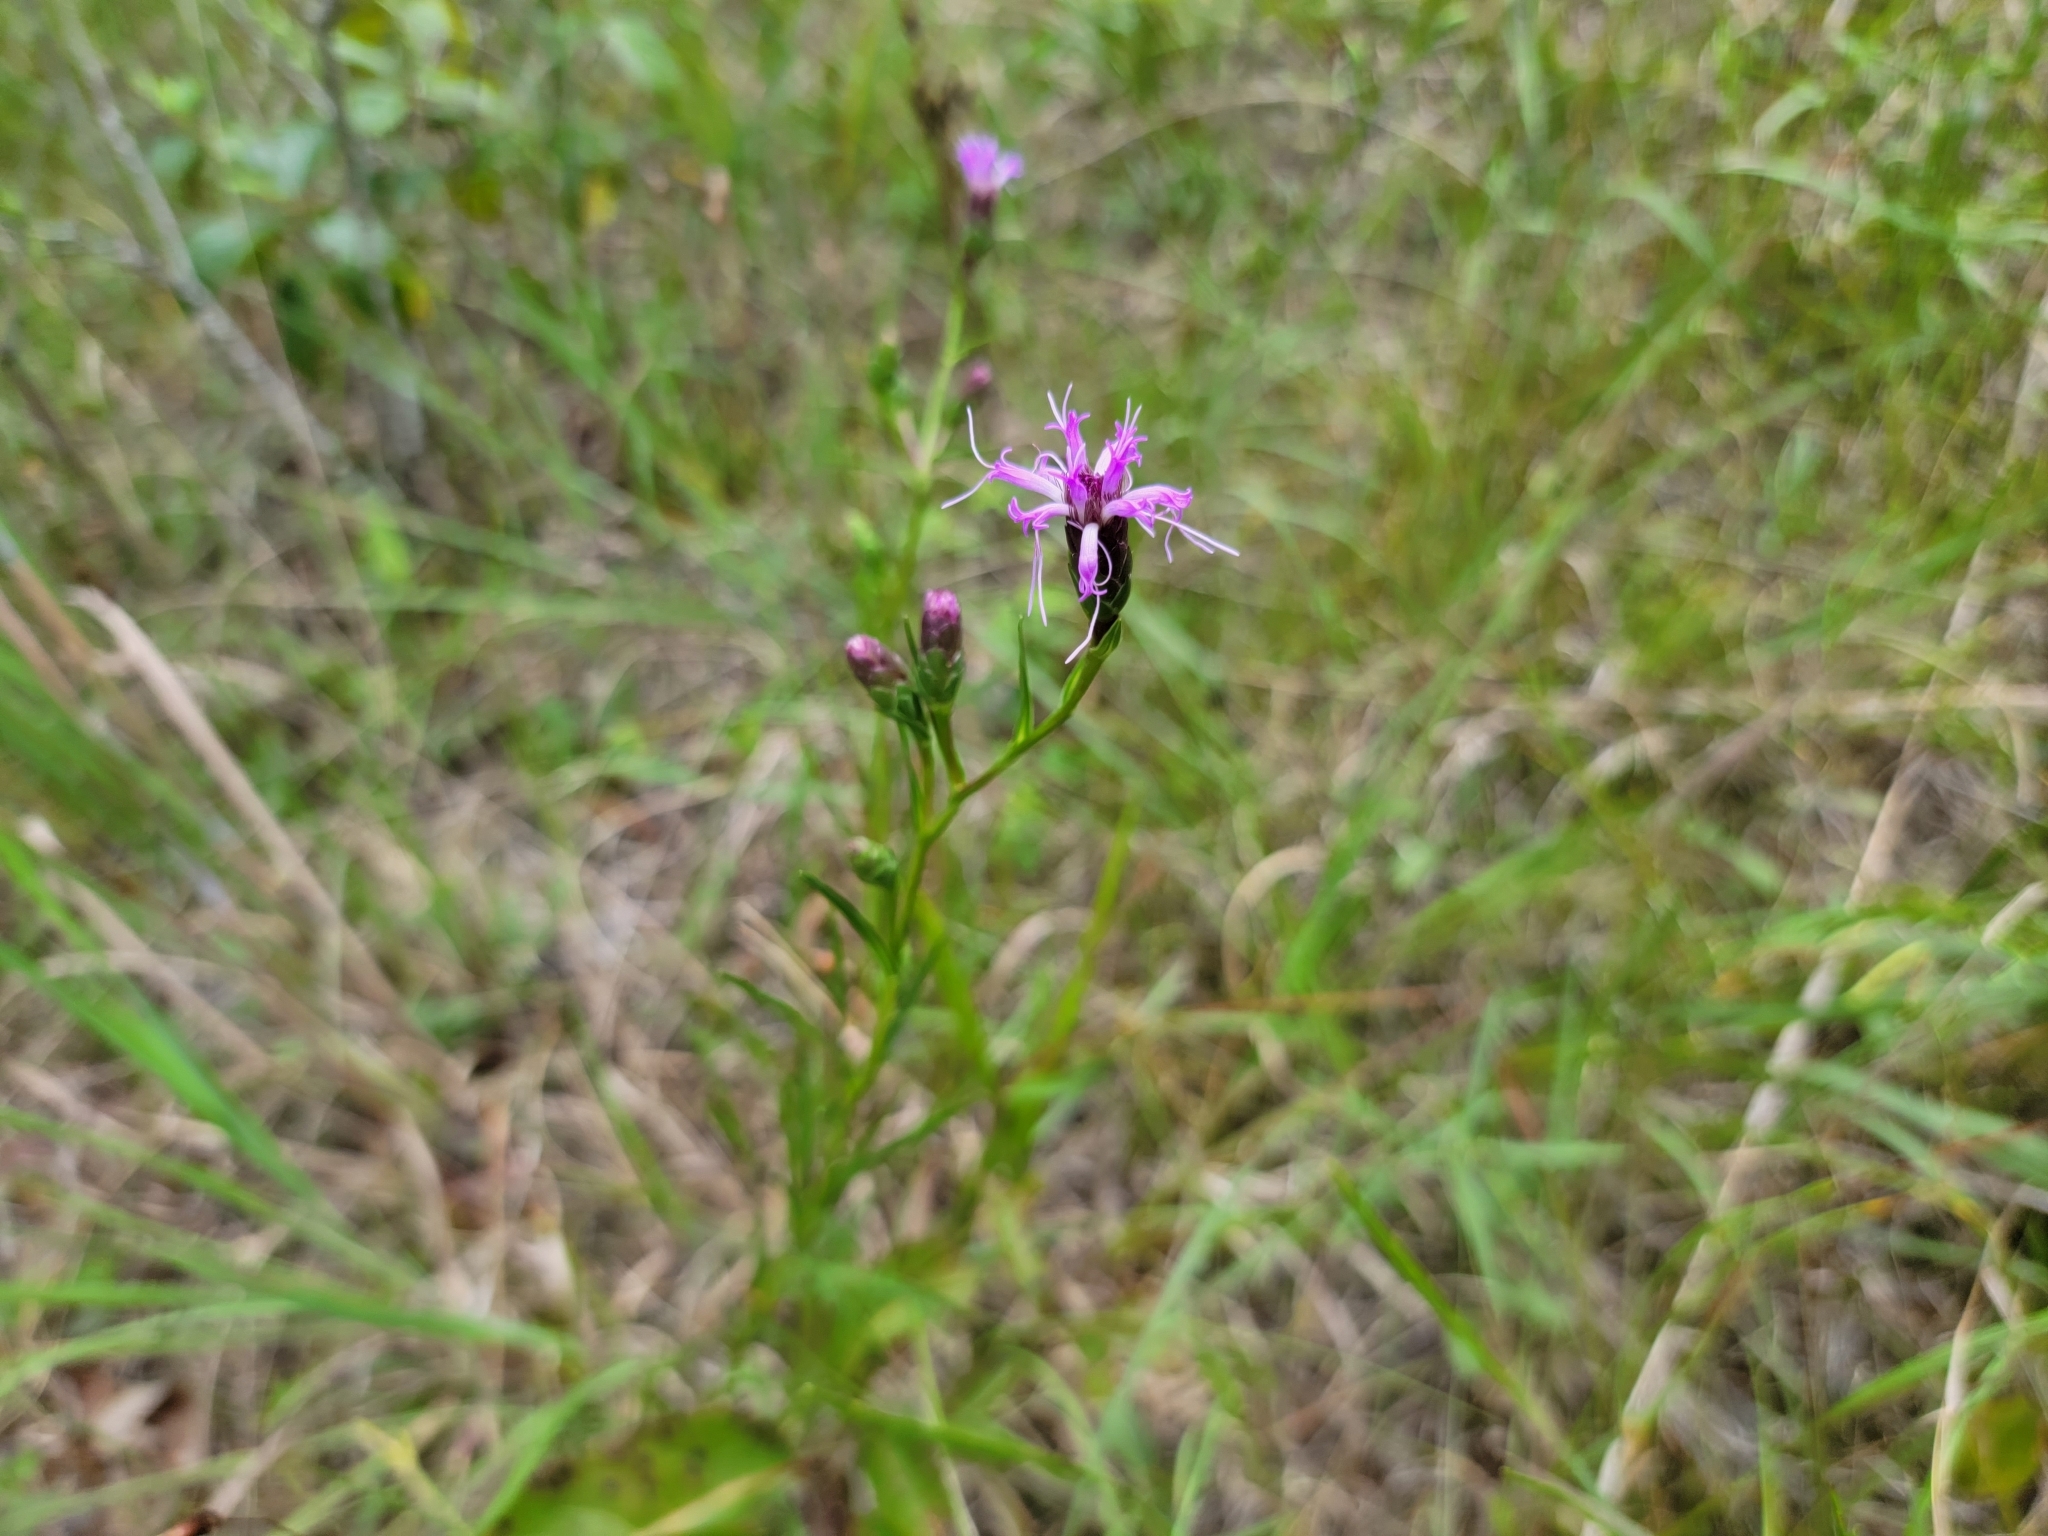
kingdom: Plantae
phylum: Tracheophyta
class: Magnoliopsida
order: Asterales
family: Asteraceae
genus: Liatris
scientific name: Liatris cylindracea
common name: Few-head blazingstar
